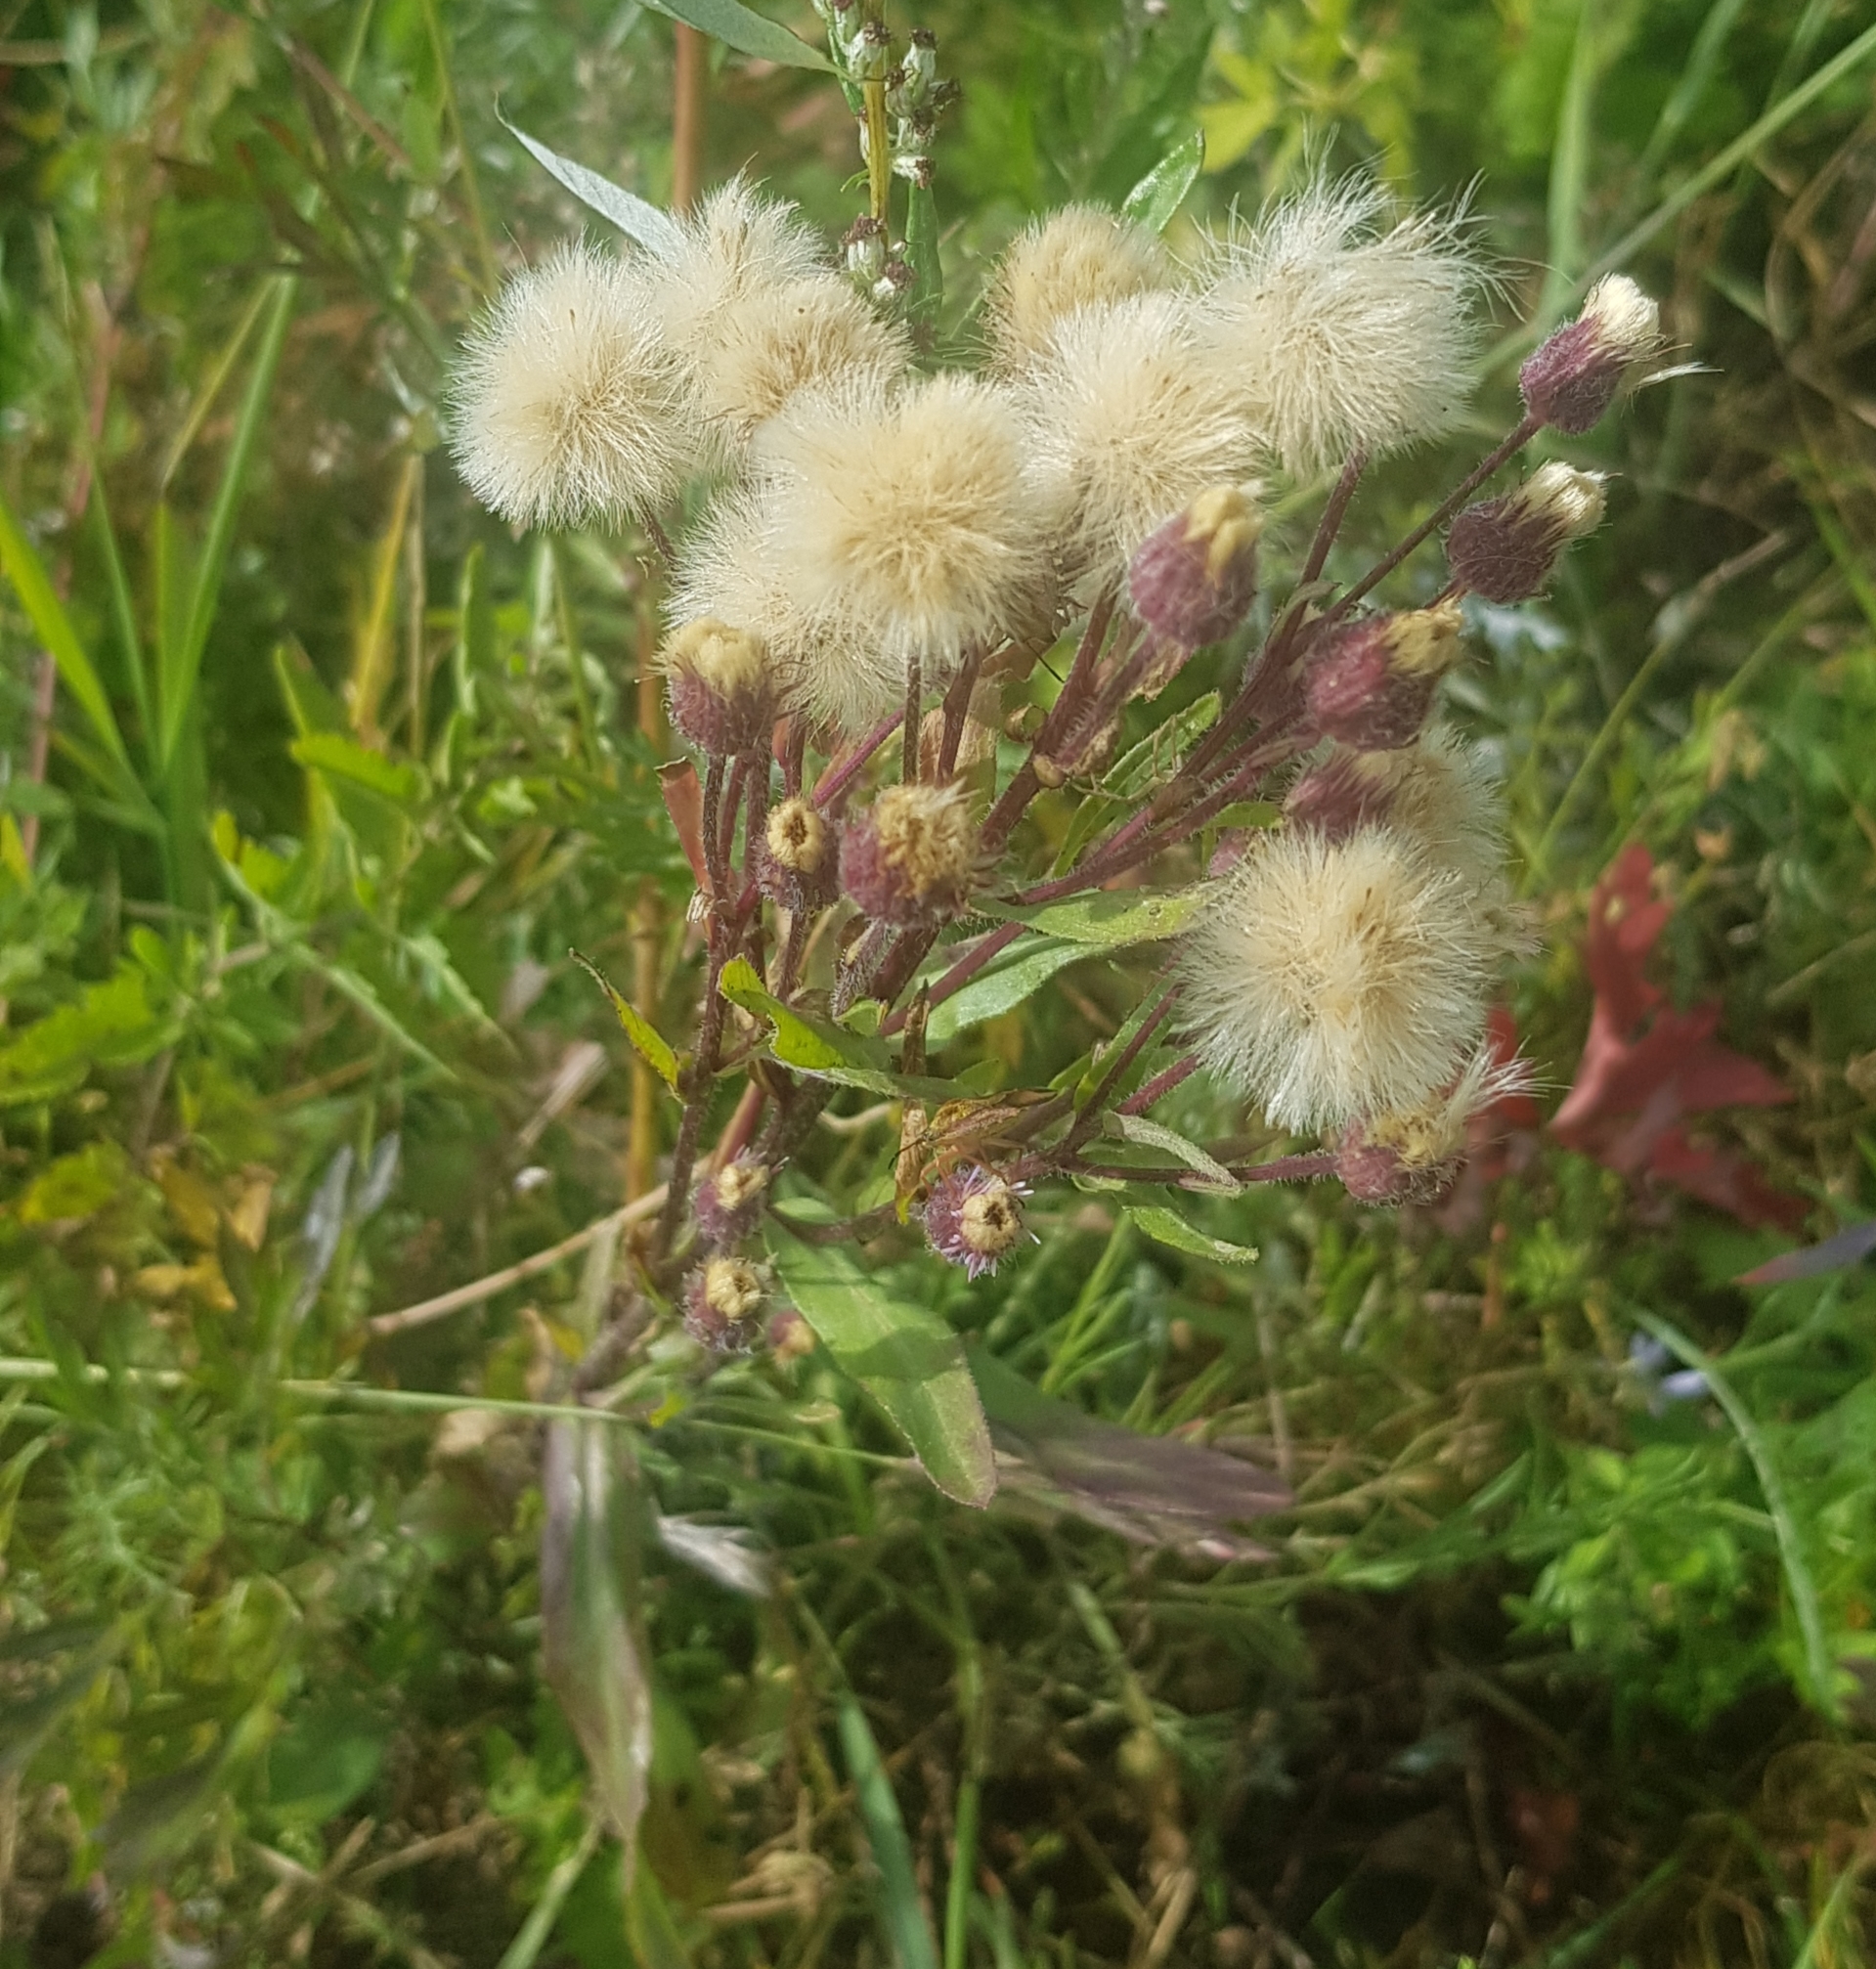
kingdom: Plantae
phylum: Tracheophyta
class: Magnoliopsida
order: Asterales
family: Asteraceae
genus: Erigeron
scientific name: Erigeron acris
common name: Blue fleabane
